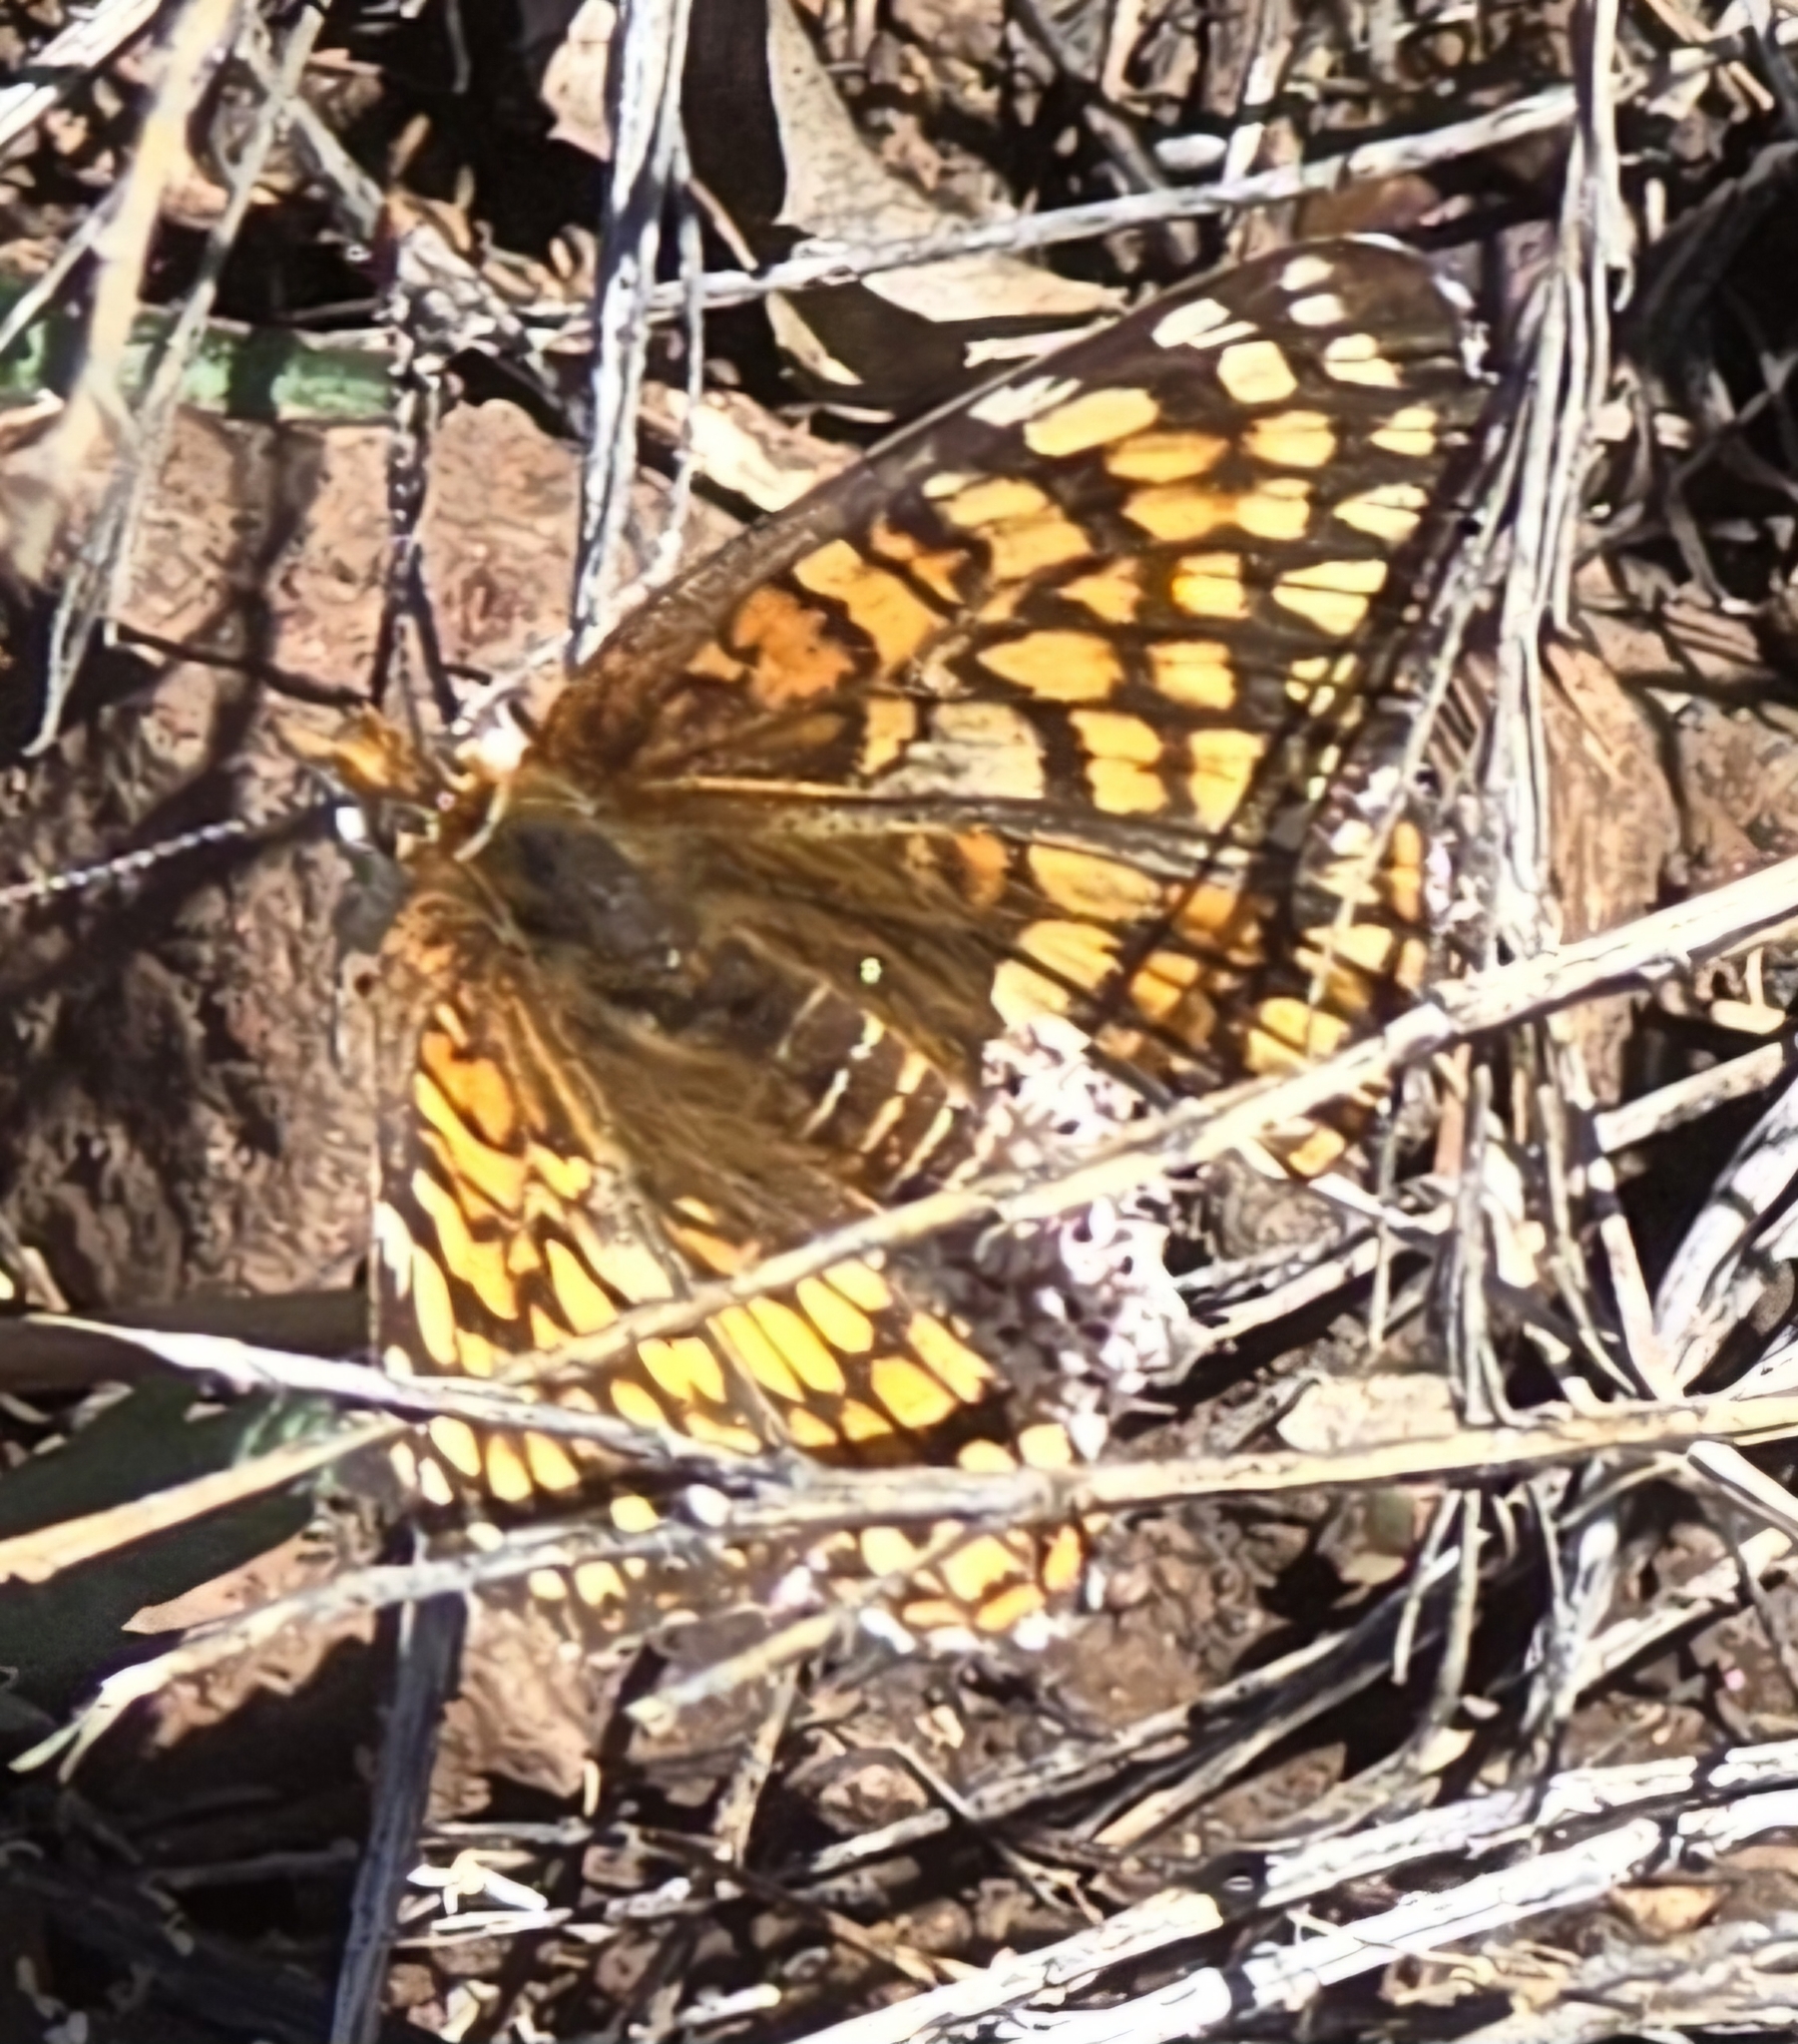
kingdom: Animalia
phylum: Arthropoda
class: Insecta
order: Lepidoptera
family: Nymphalidae
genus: Chlosyne
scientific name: Chlosyne acastus
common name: Sagebrush checkerspot
